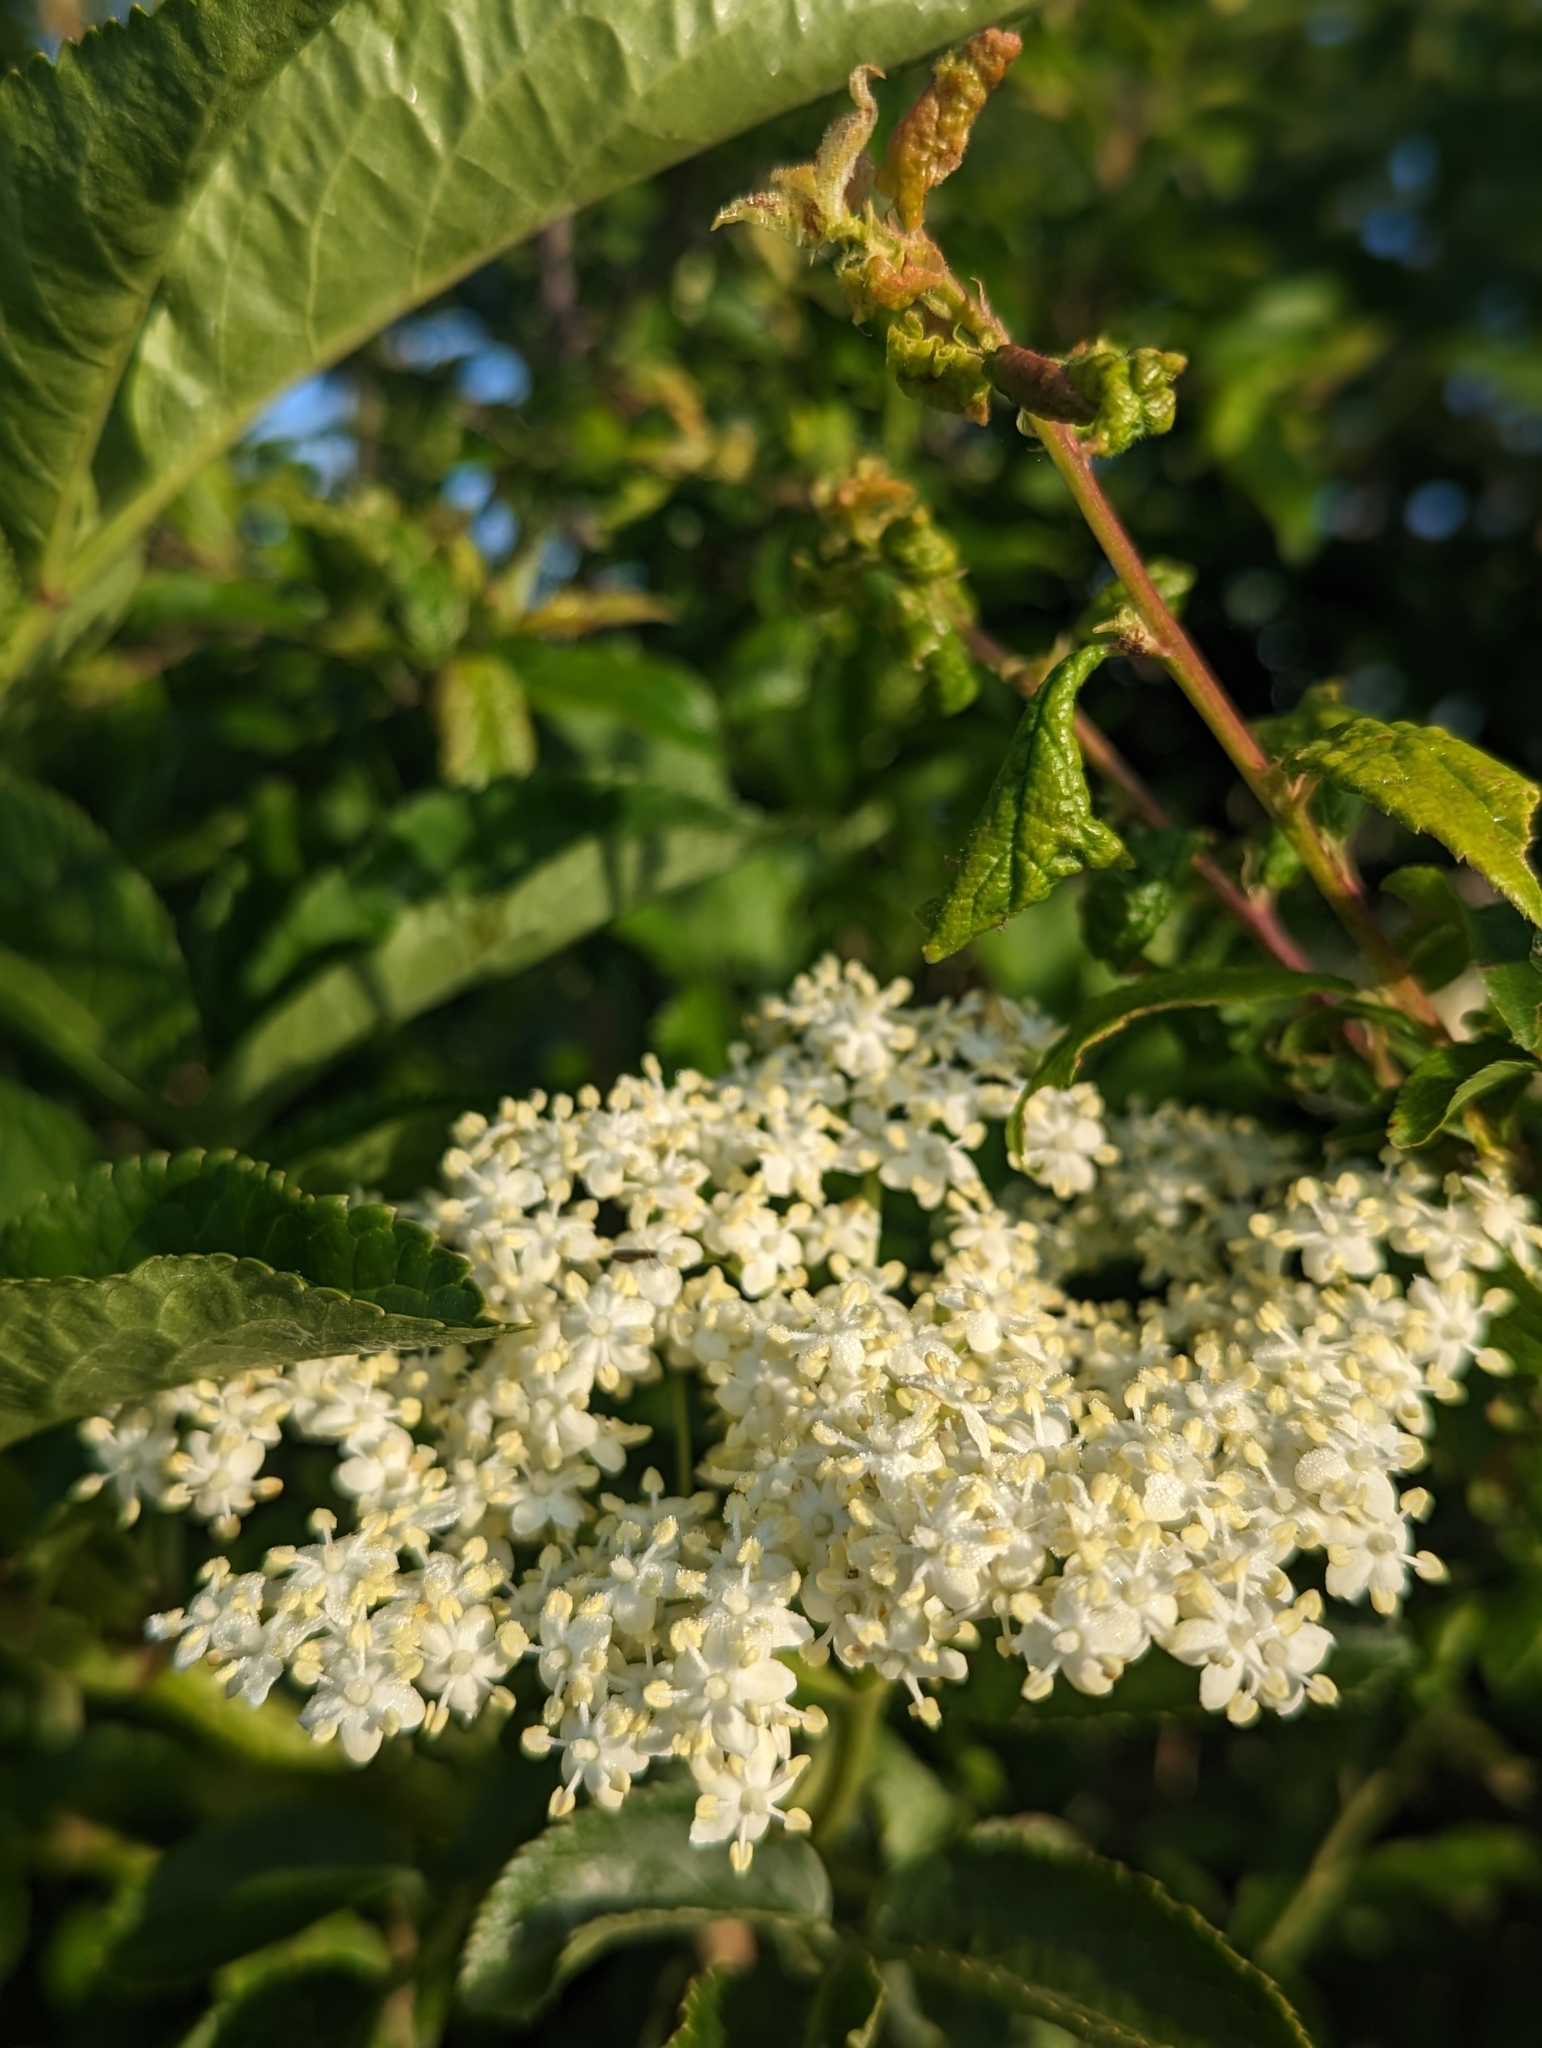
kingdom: Plantae
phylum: Tracheophyta
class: Magnoliopsida
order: Dipsacales
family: Viburnaceae
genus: Sambucus
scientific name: Sambucus nigra
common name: Elder
